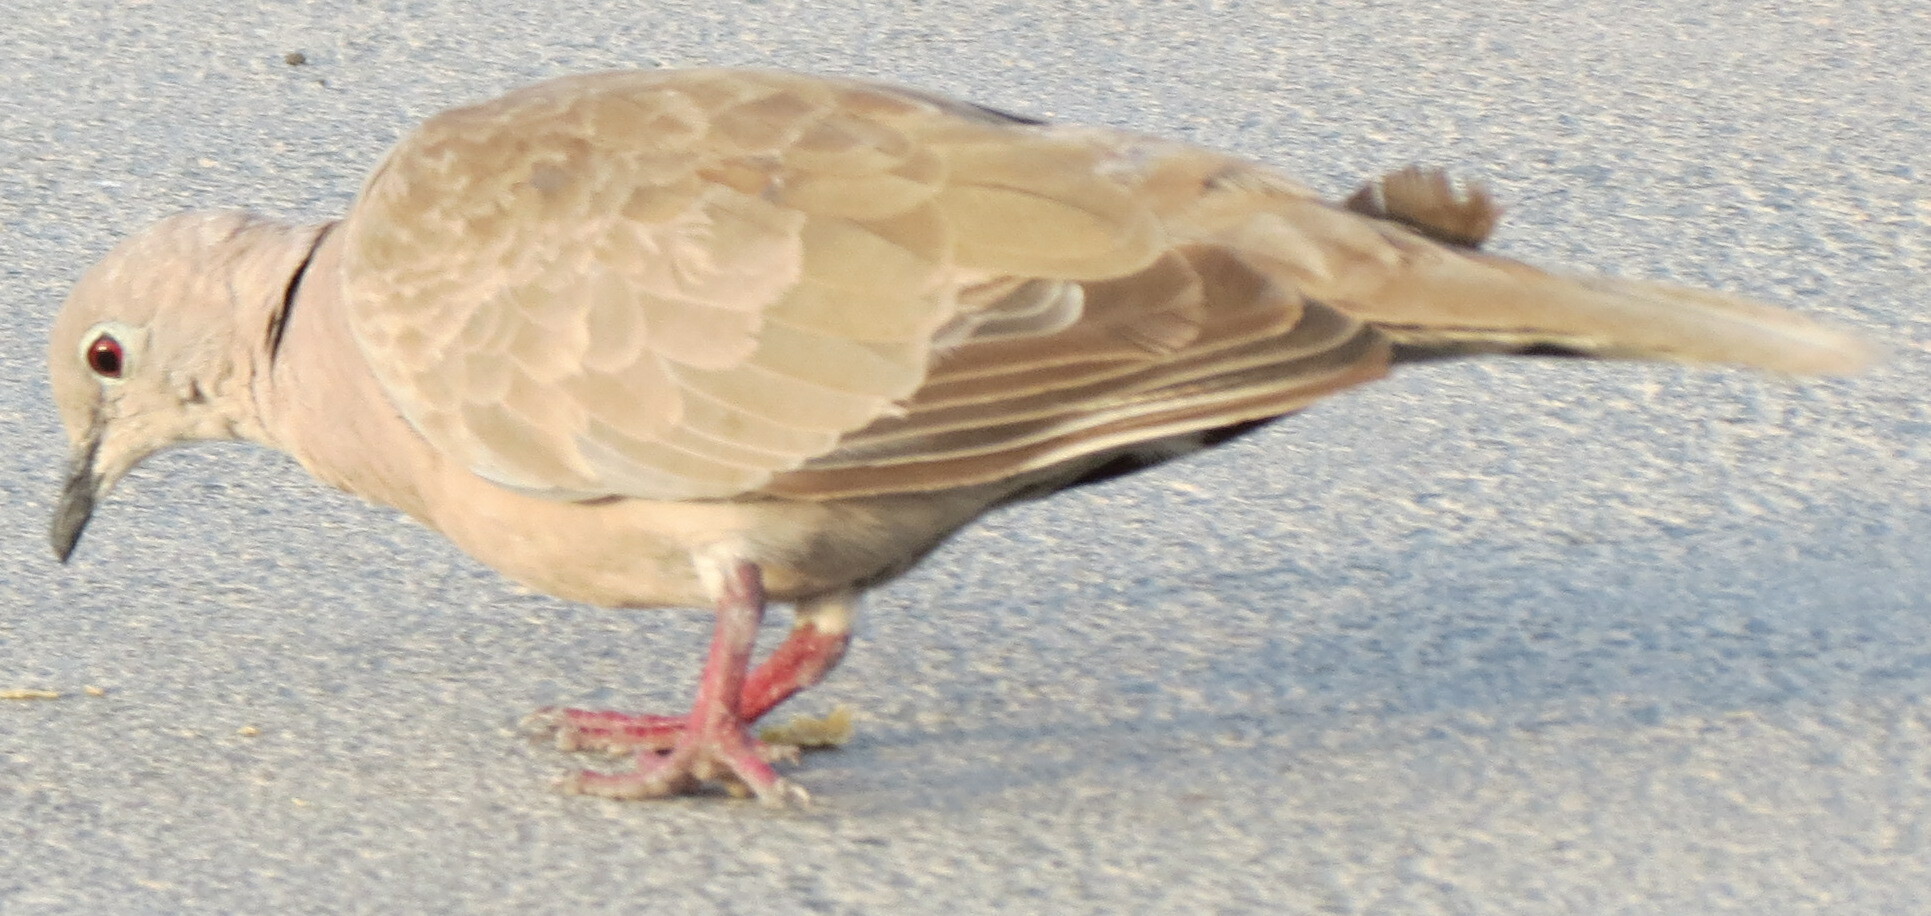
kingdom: Animalia
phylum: Chordata
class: Aves
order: Columbiformes
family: Columbidae
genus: Streptopelia
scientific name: Streptopelia decaocto
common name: Eurasian collared dove
